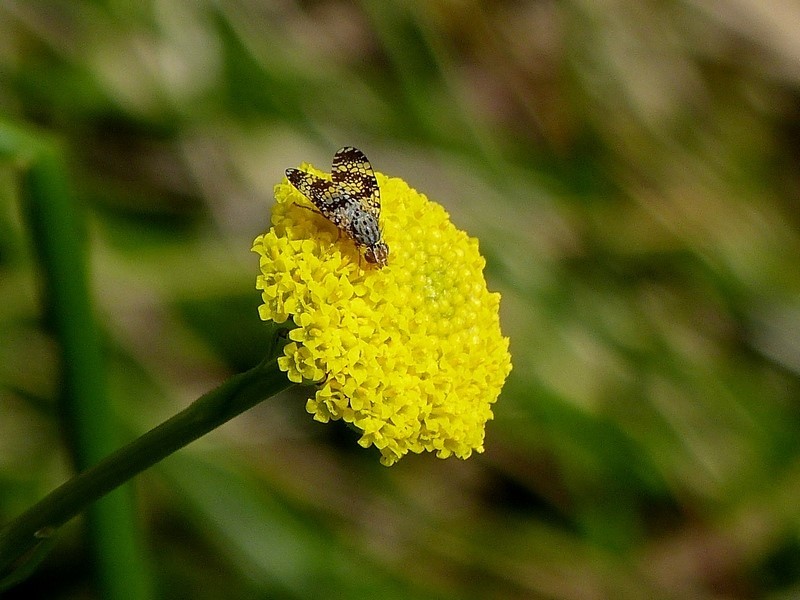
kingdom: Animalia
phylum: Arthropoda
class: Insecta
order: Diptera
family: Tephritidae
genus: Austrotephritis
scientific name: Austrotephritis
